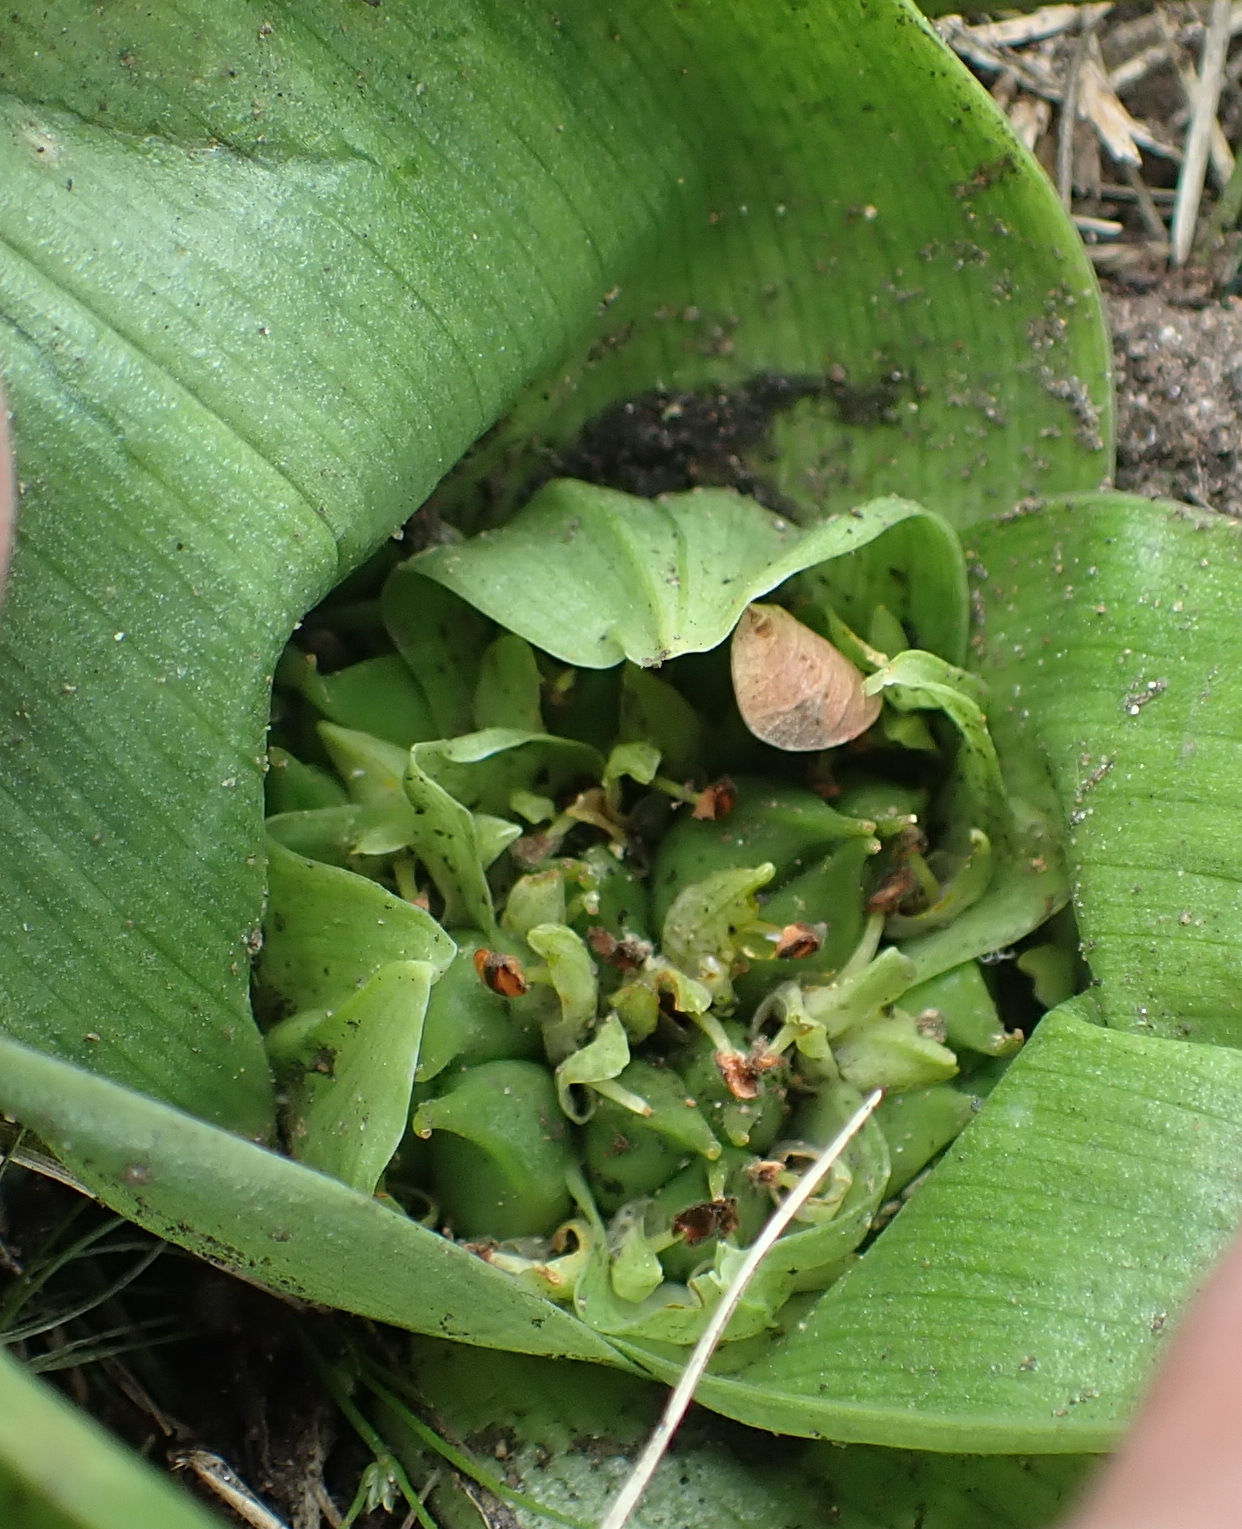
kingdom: Plantae
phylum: Tracheophyta
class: Liliopsida
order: Liliales
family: Colchicaceae
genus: Colchicum
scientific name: Colchicum eucomoides
